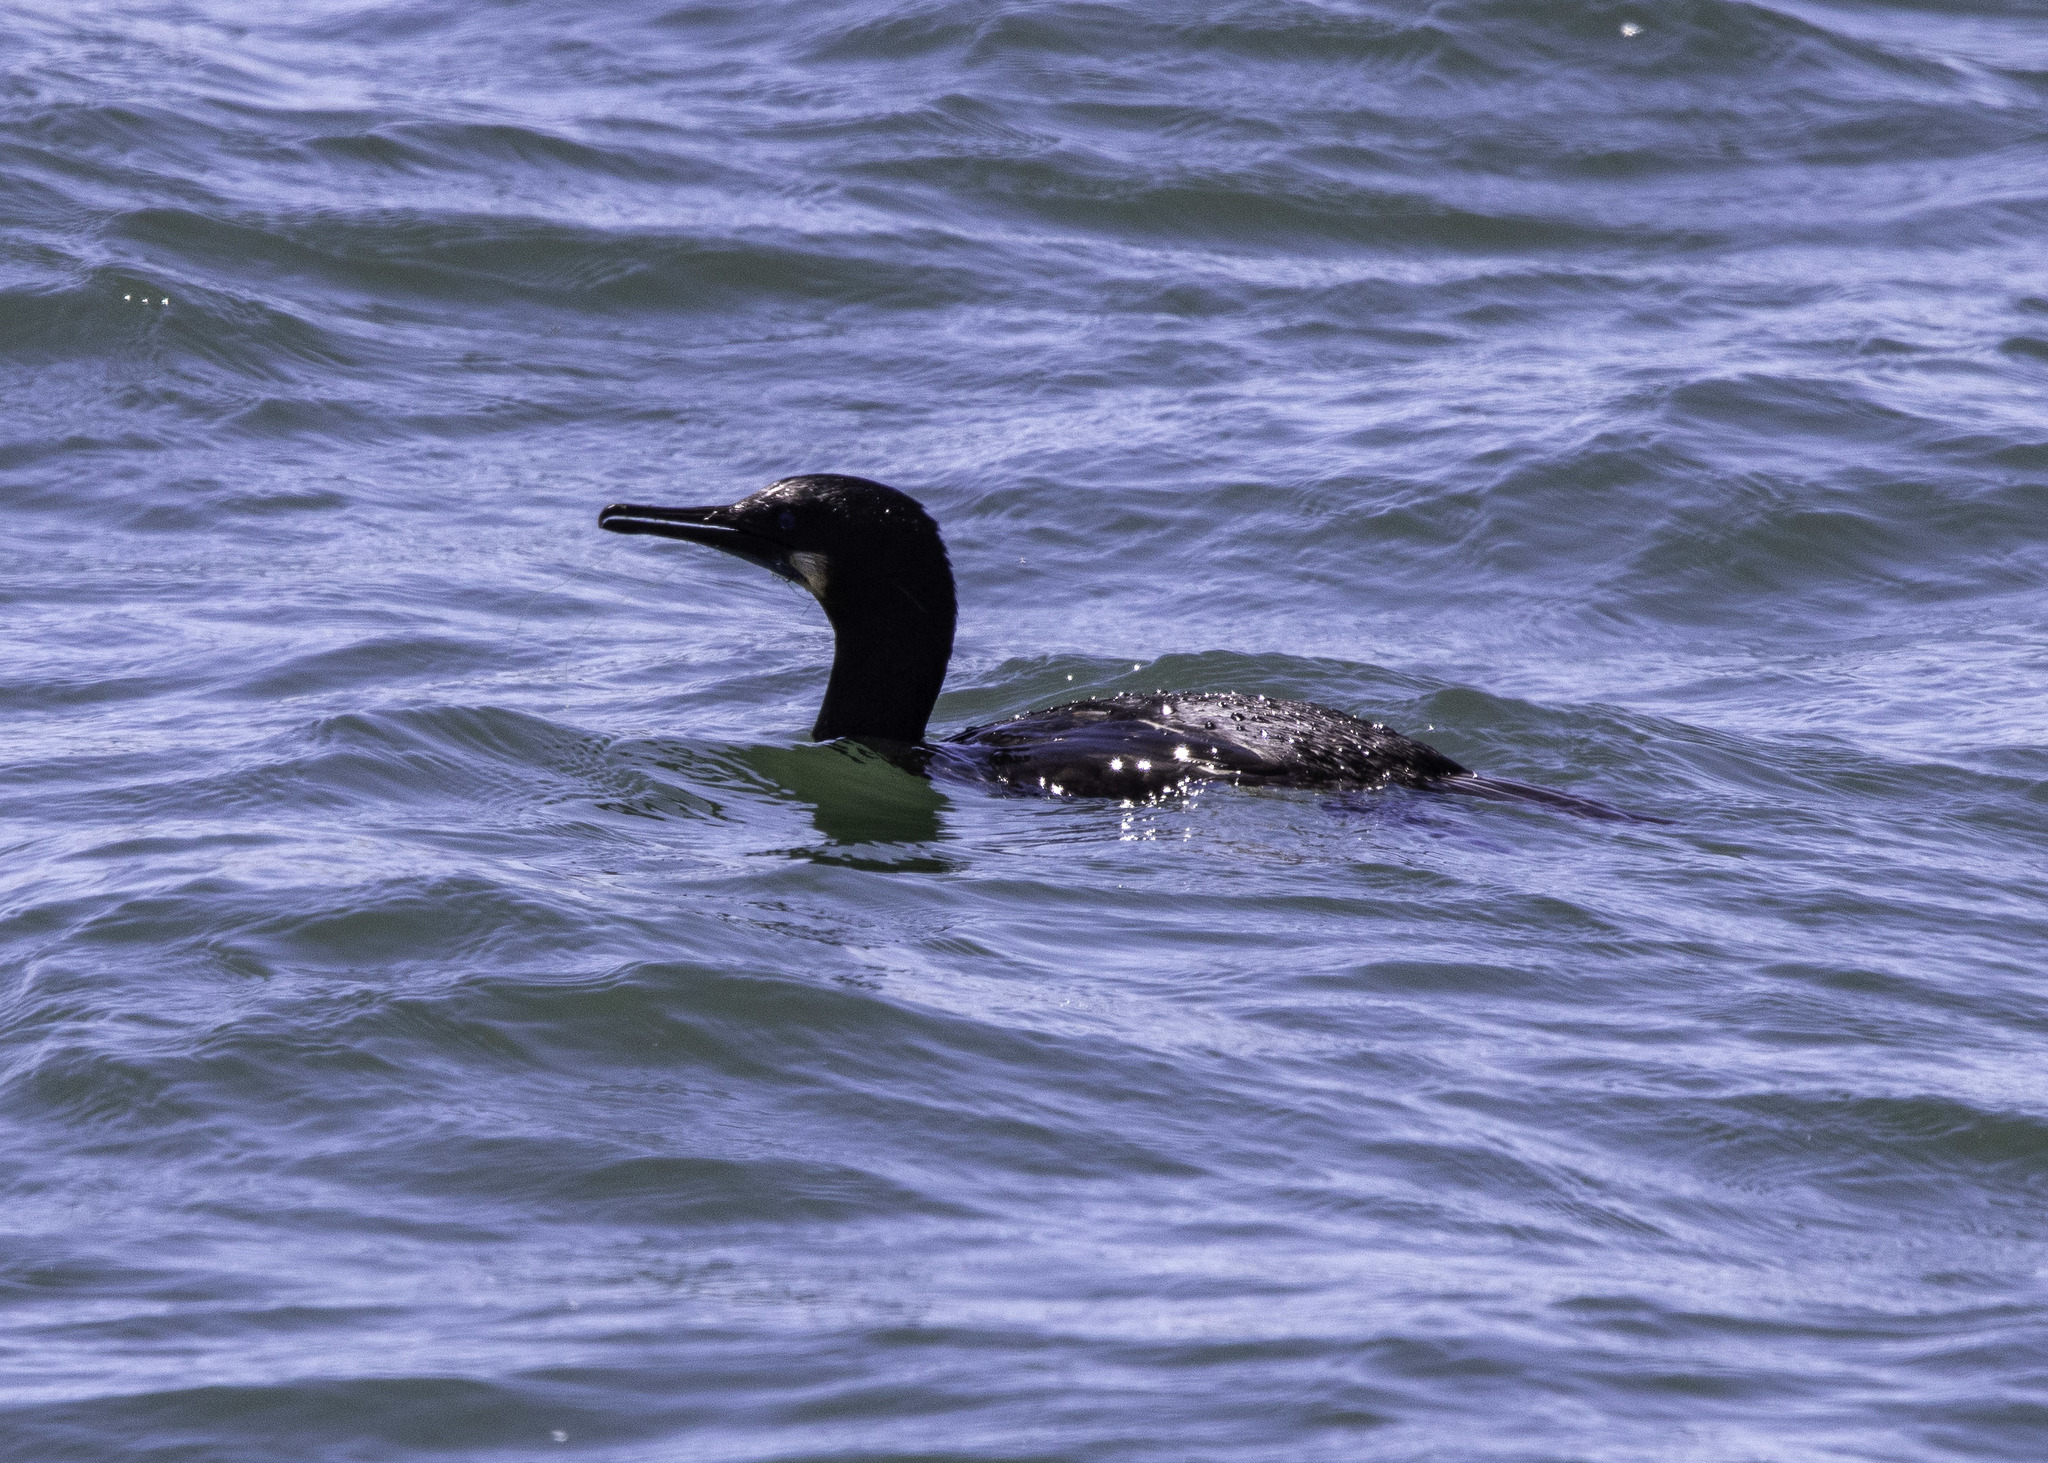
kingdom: Animalia
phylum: Chordata
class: Aves
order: Suliformes
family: Phalacrocoracidae
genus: Urile
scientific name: Urile penicillatus
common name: Brandt's cormorant
